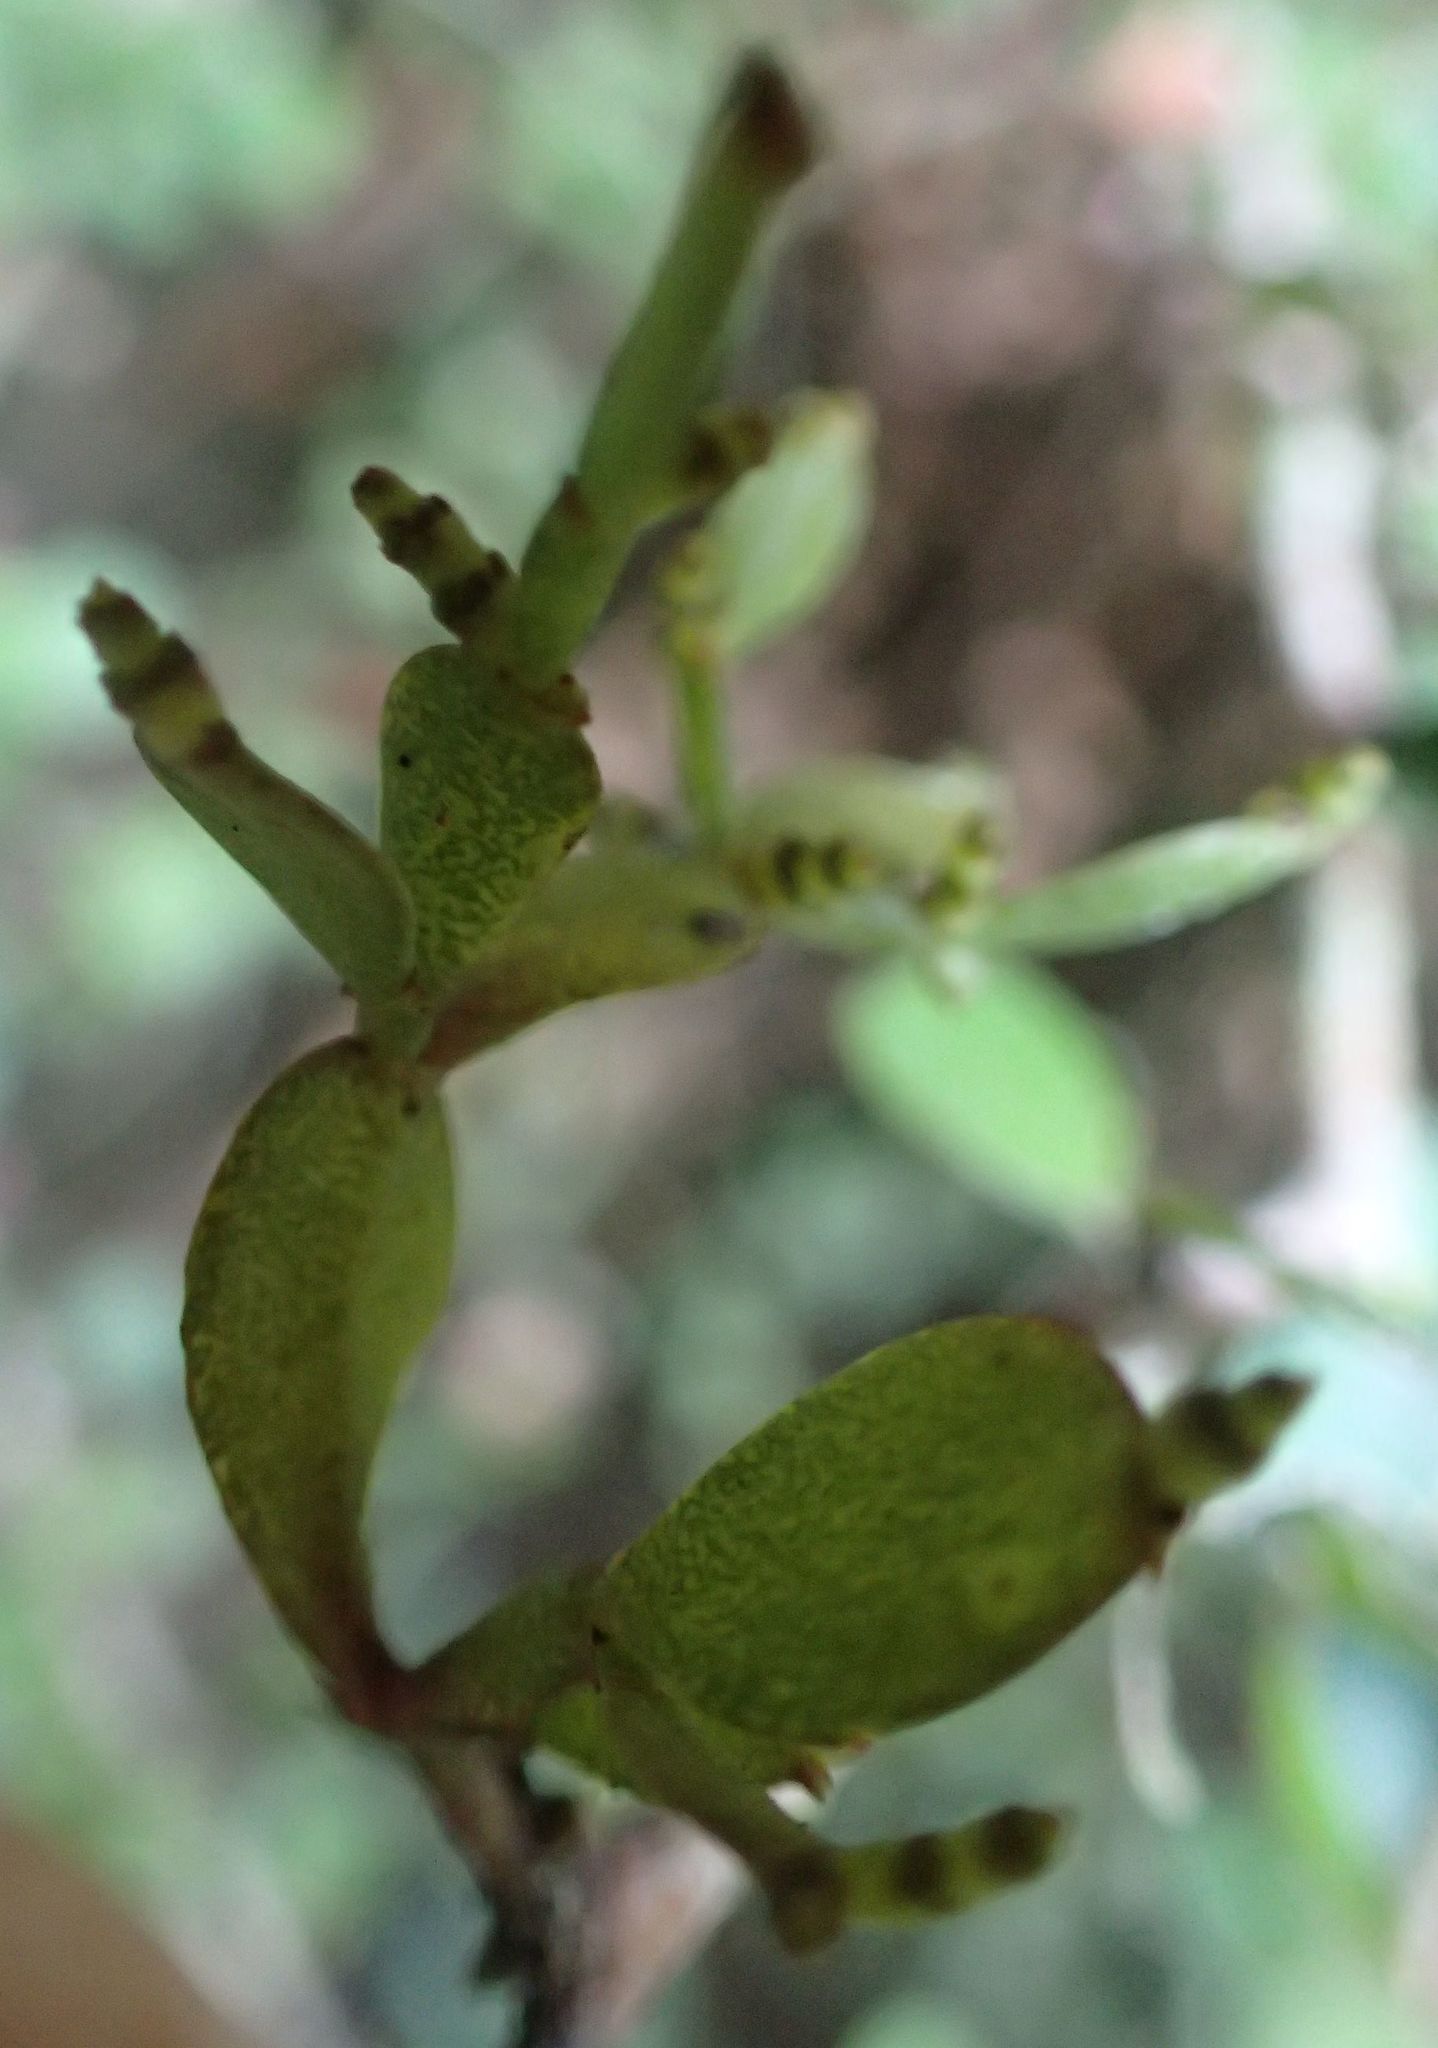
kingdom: Plantae
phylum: Tracheophyta
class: Magnoliopsida
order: Santalales
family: Viscaceae
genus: Korthalsella
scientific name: Korthalsella lindsayi
